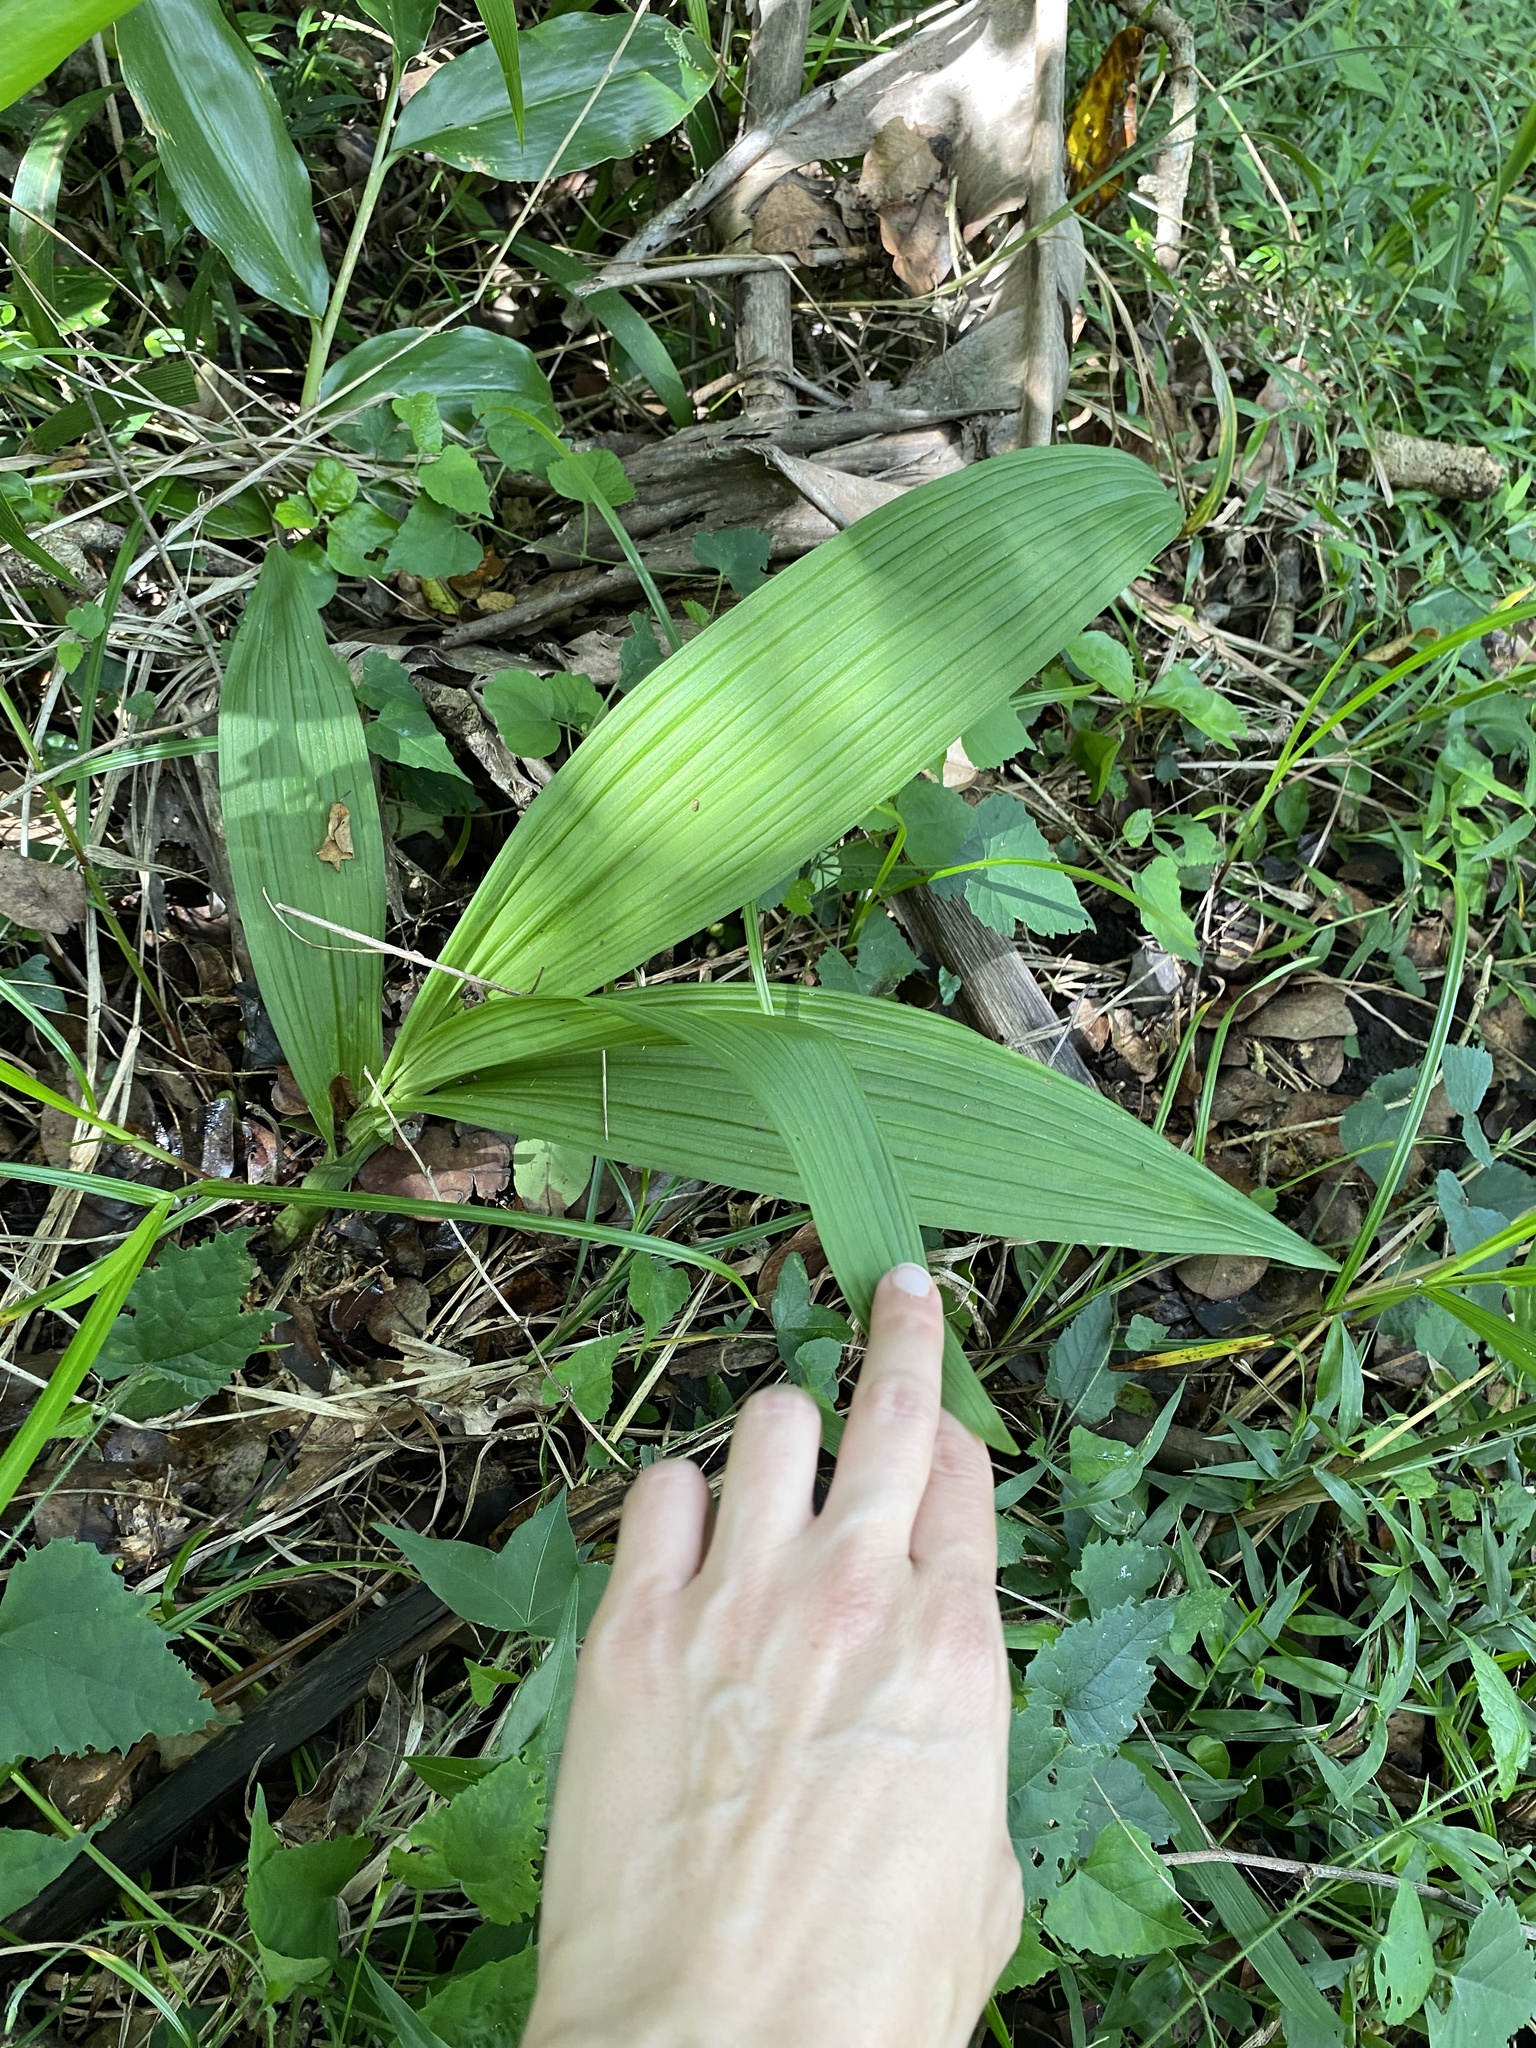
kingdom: Plantae
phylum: Tracheophyta
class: Liliopsida
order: Asparagales
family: Orchidaceae
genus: Eulophia
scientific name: Eulophia streptopetala
